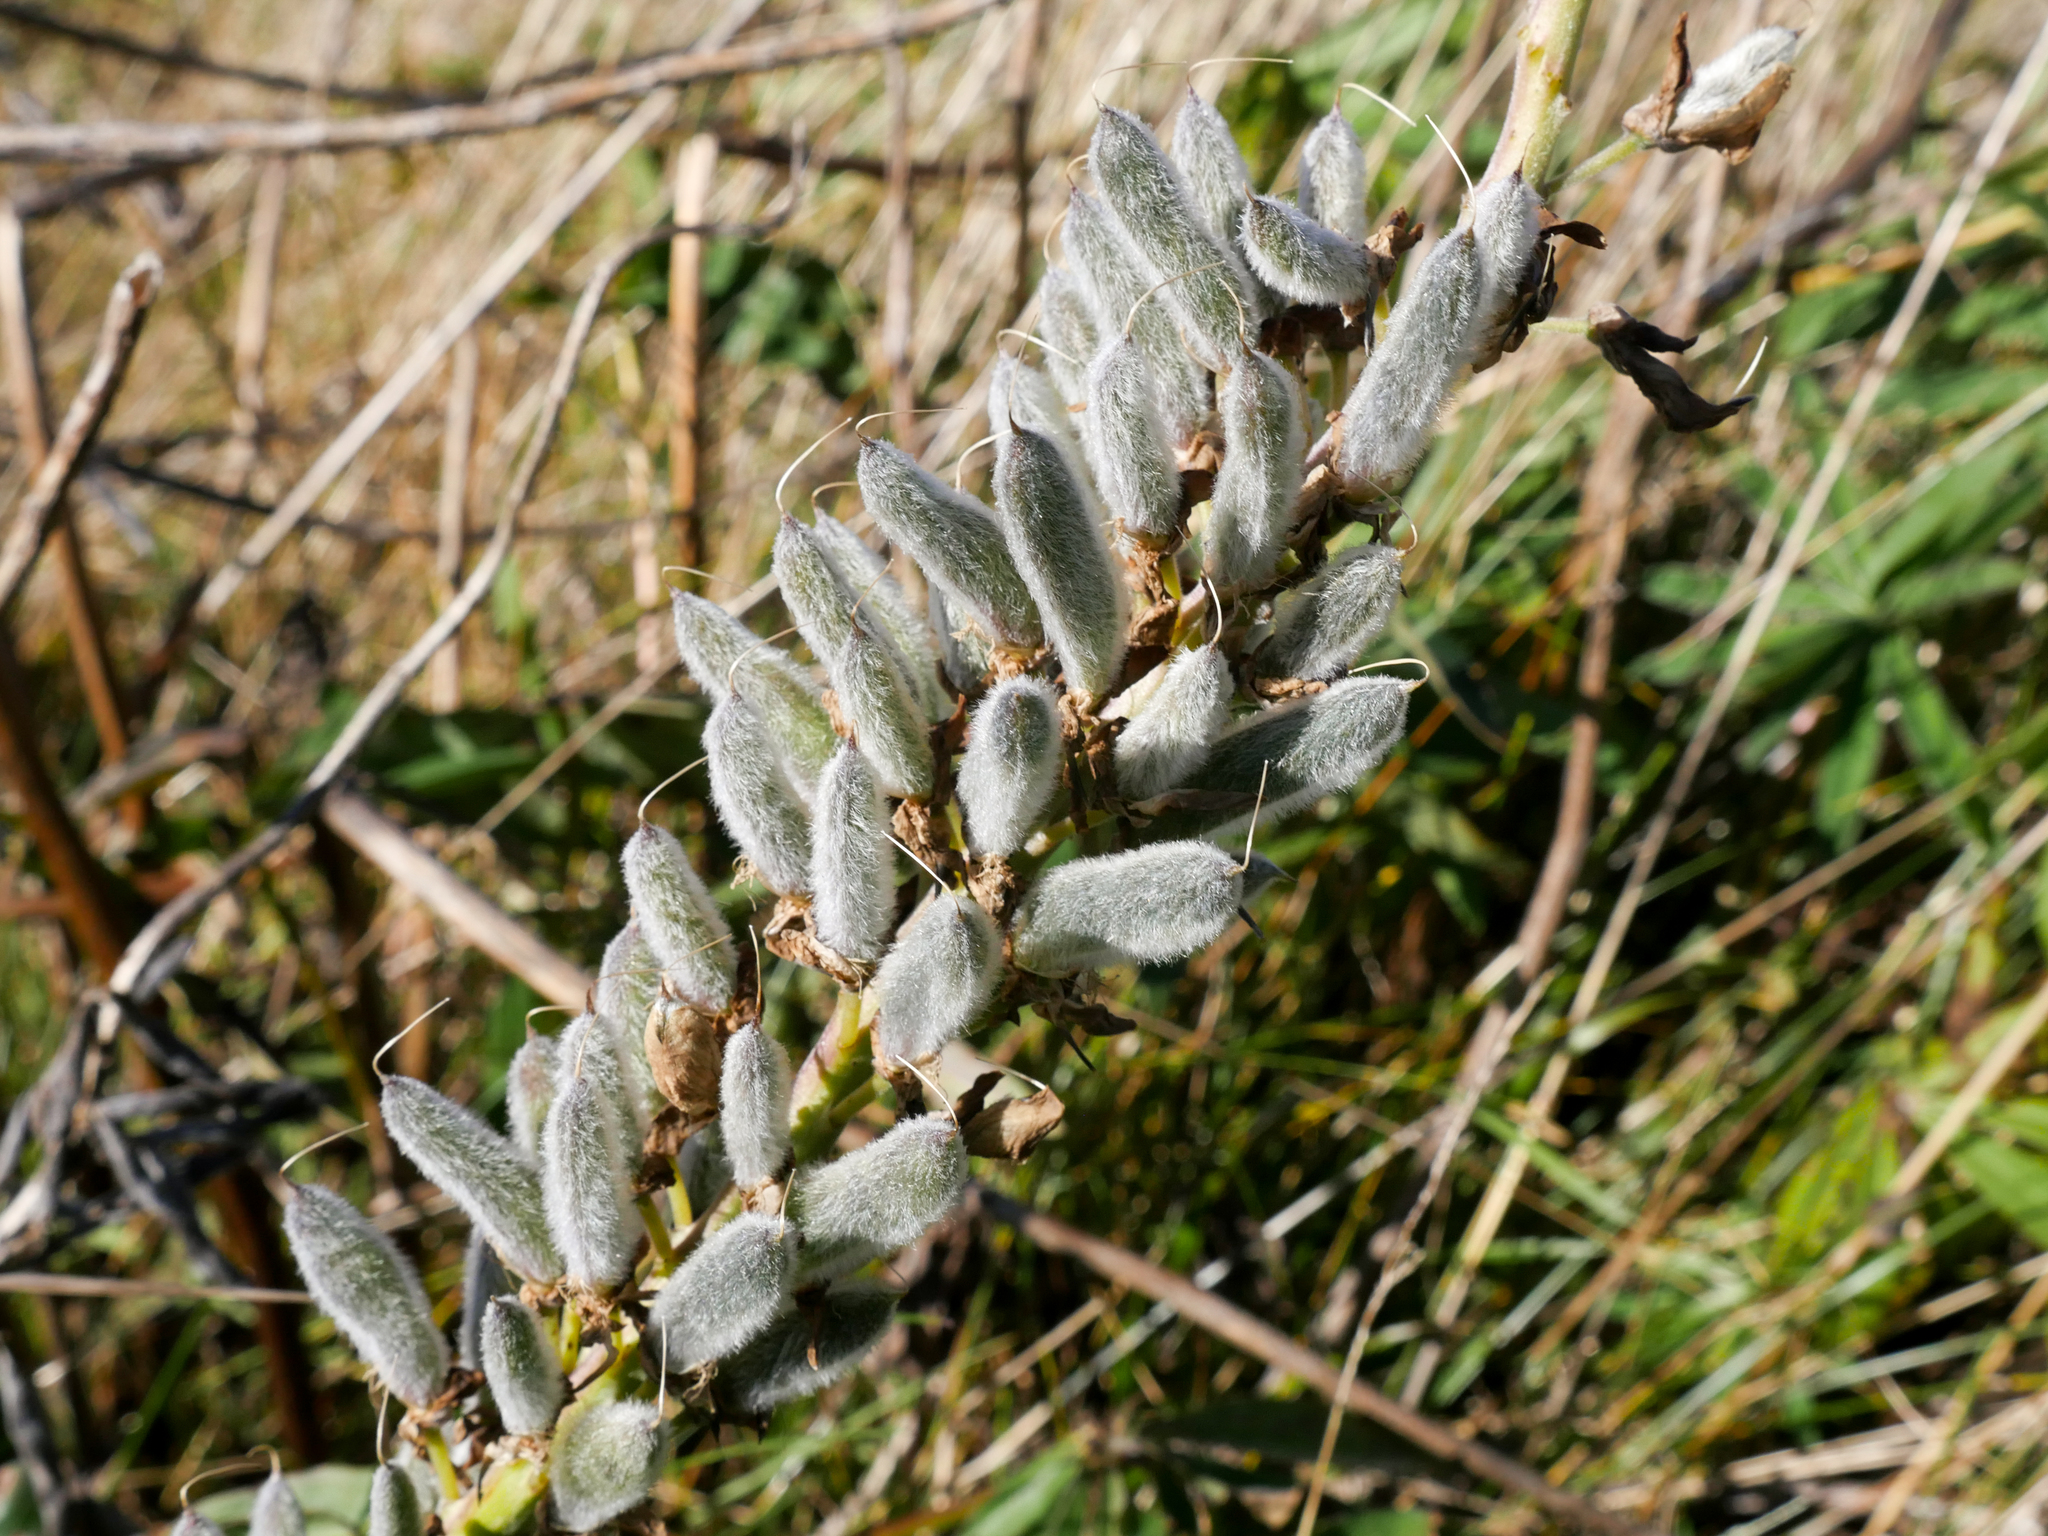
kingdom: Plantae
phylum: Tracheophyta
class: Magnoliopsida
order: Fabales
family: Fabaceae
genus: Lupinus
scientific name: Lupinus polyphyllus
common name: Garden lupin
